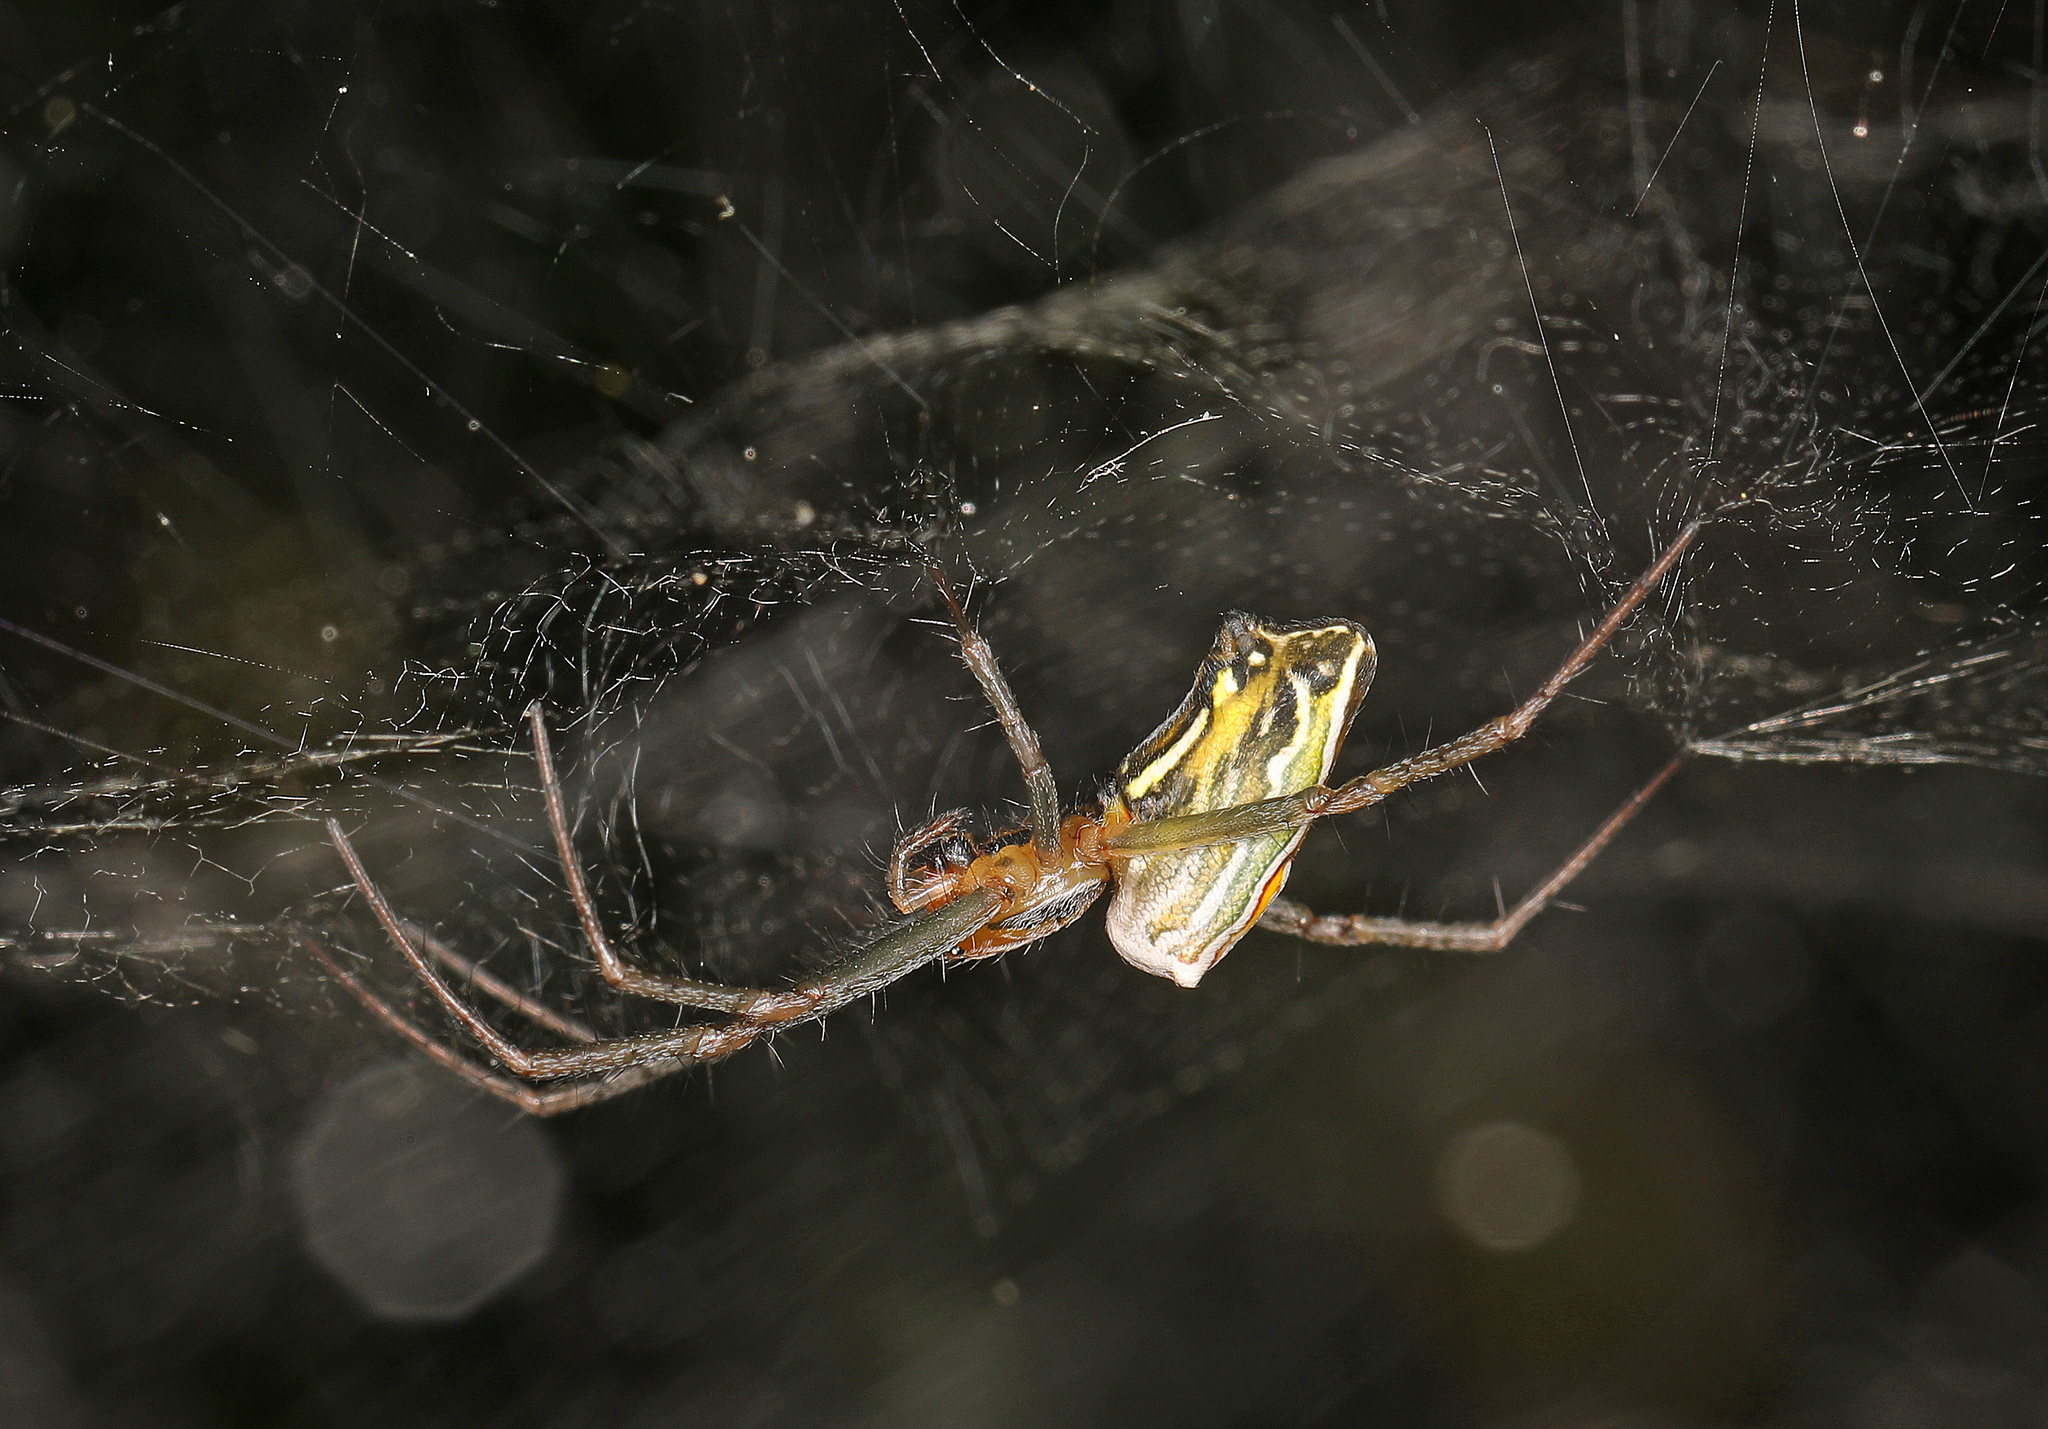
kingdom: Animalia
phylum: Arthropoda
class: Arachnida
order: Araneae
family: Araneidae
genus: Mecynogea
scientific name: Mecynogea lemniscata
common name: Orb weavers
